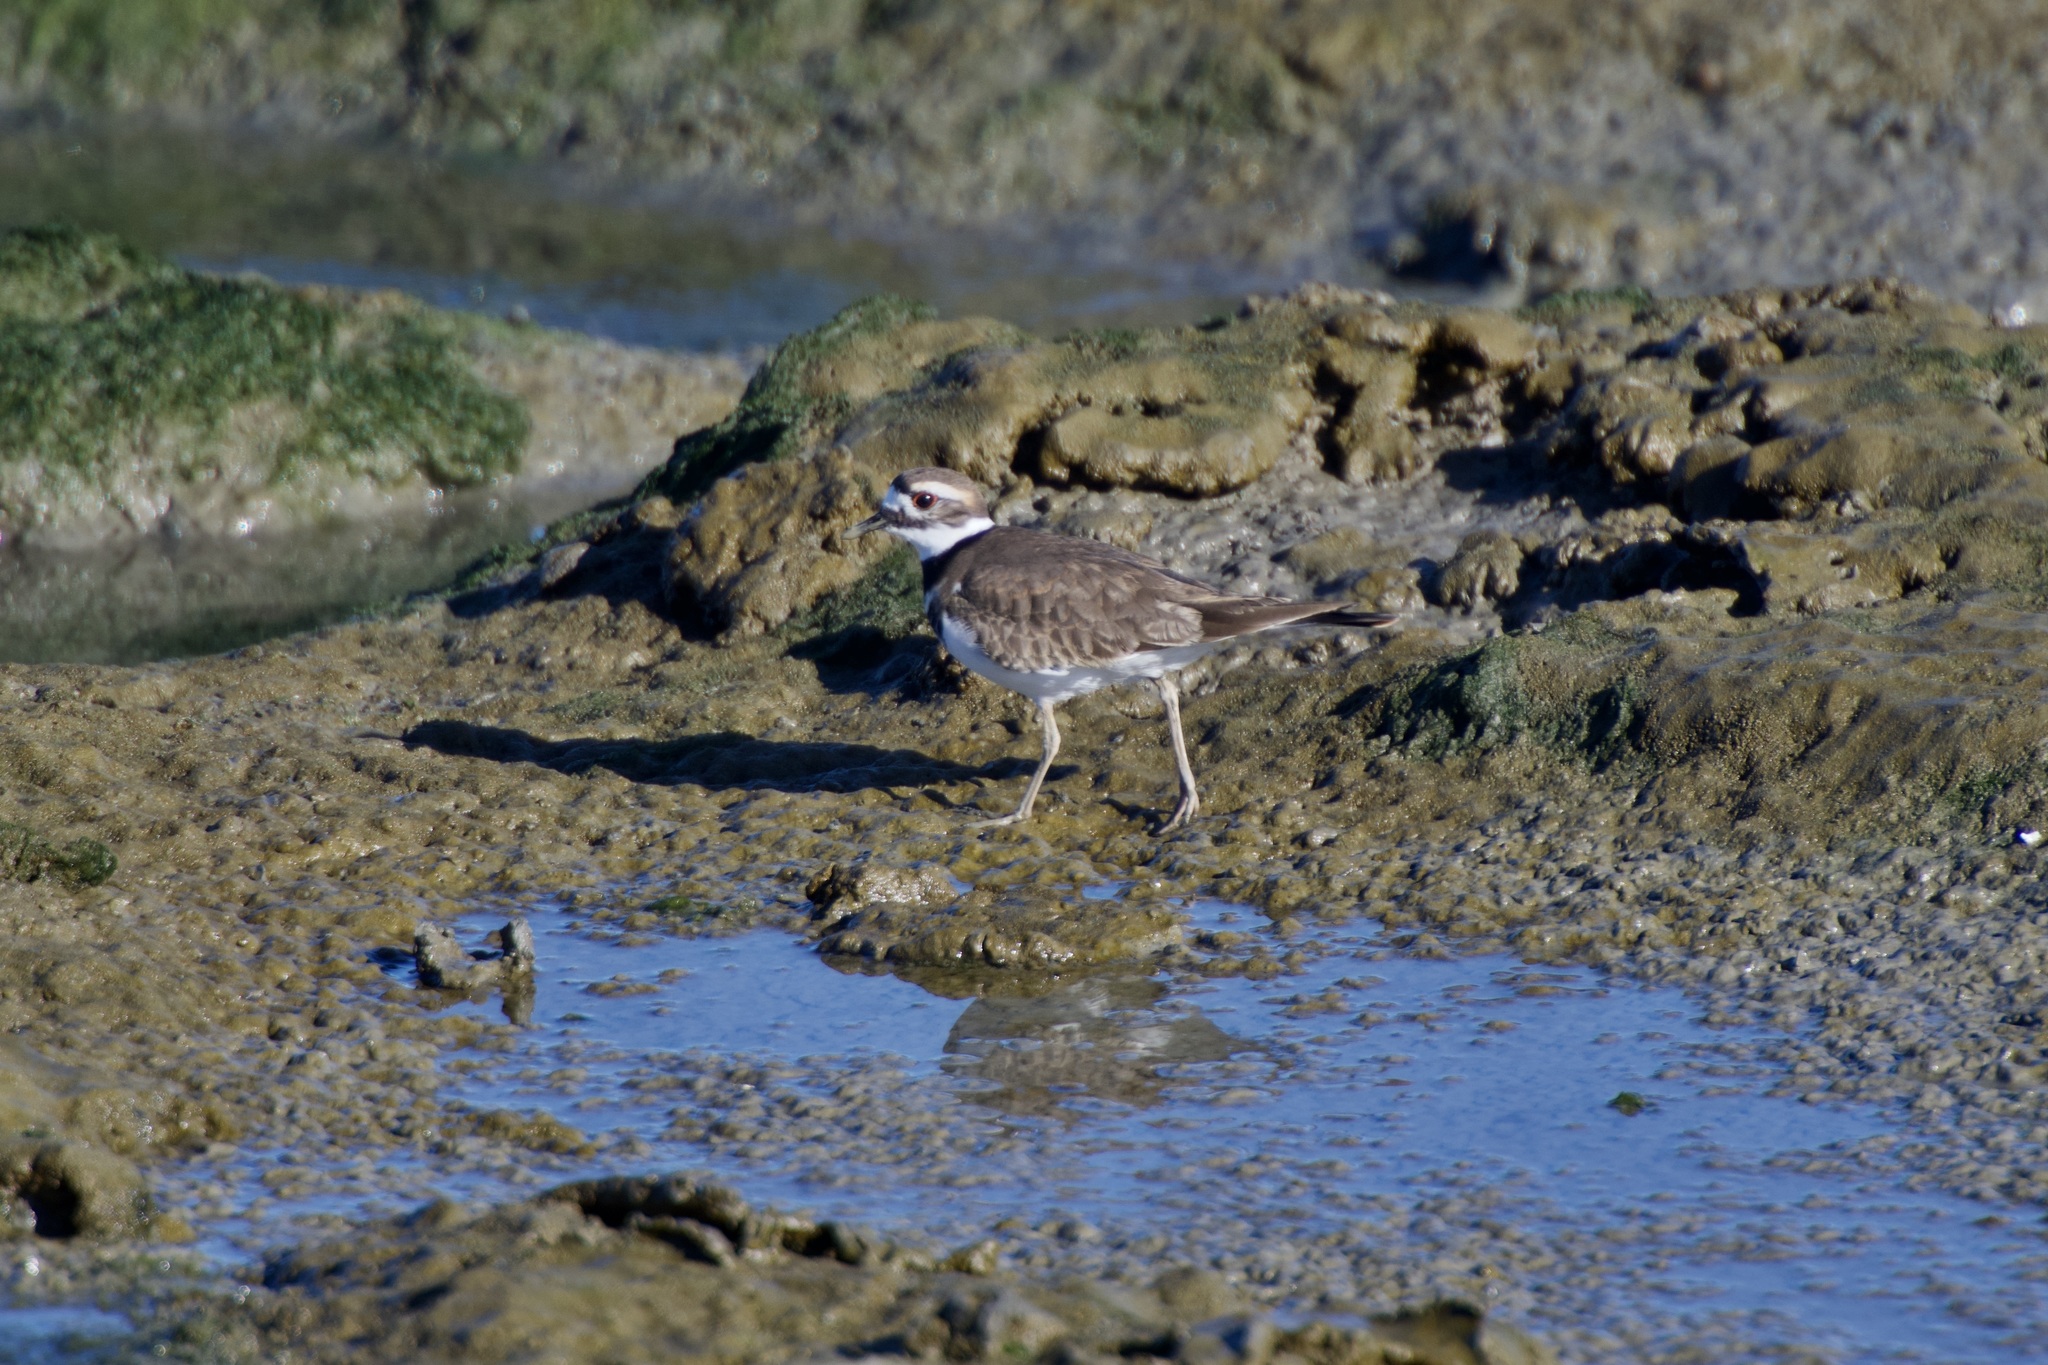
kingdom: Animalia
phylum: Chordata
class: Aves
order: Charadriiformes
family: Charadriidae
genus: Charadrius
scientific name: Charadrius vociferus
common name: Killdeer
